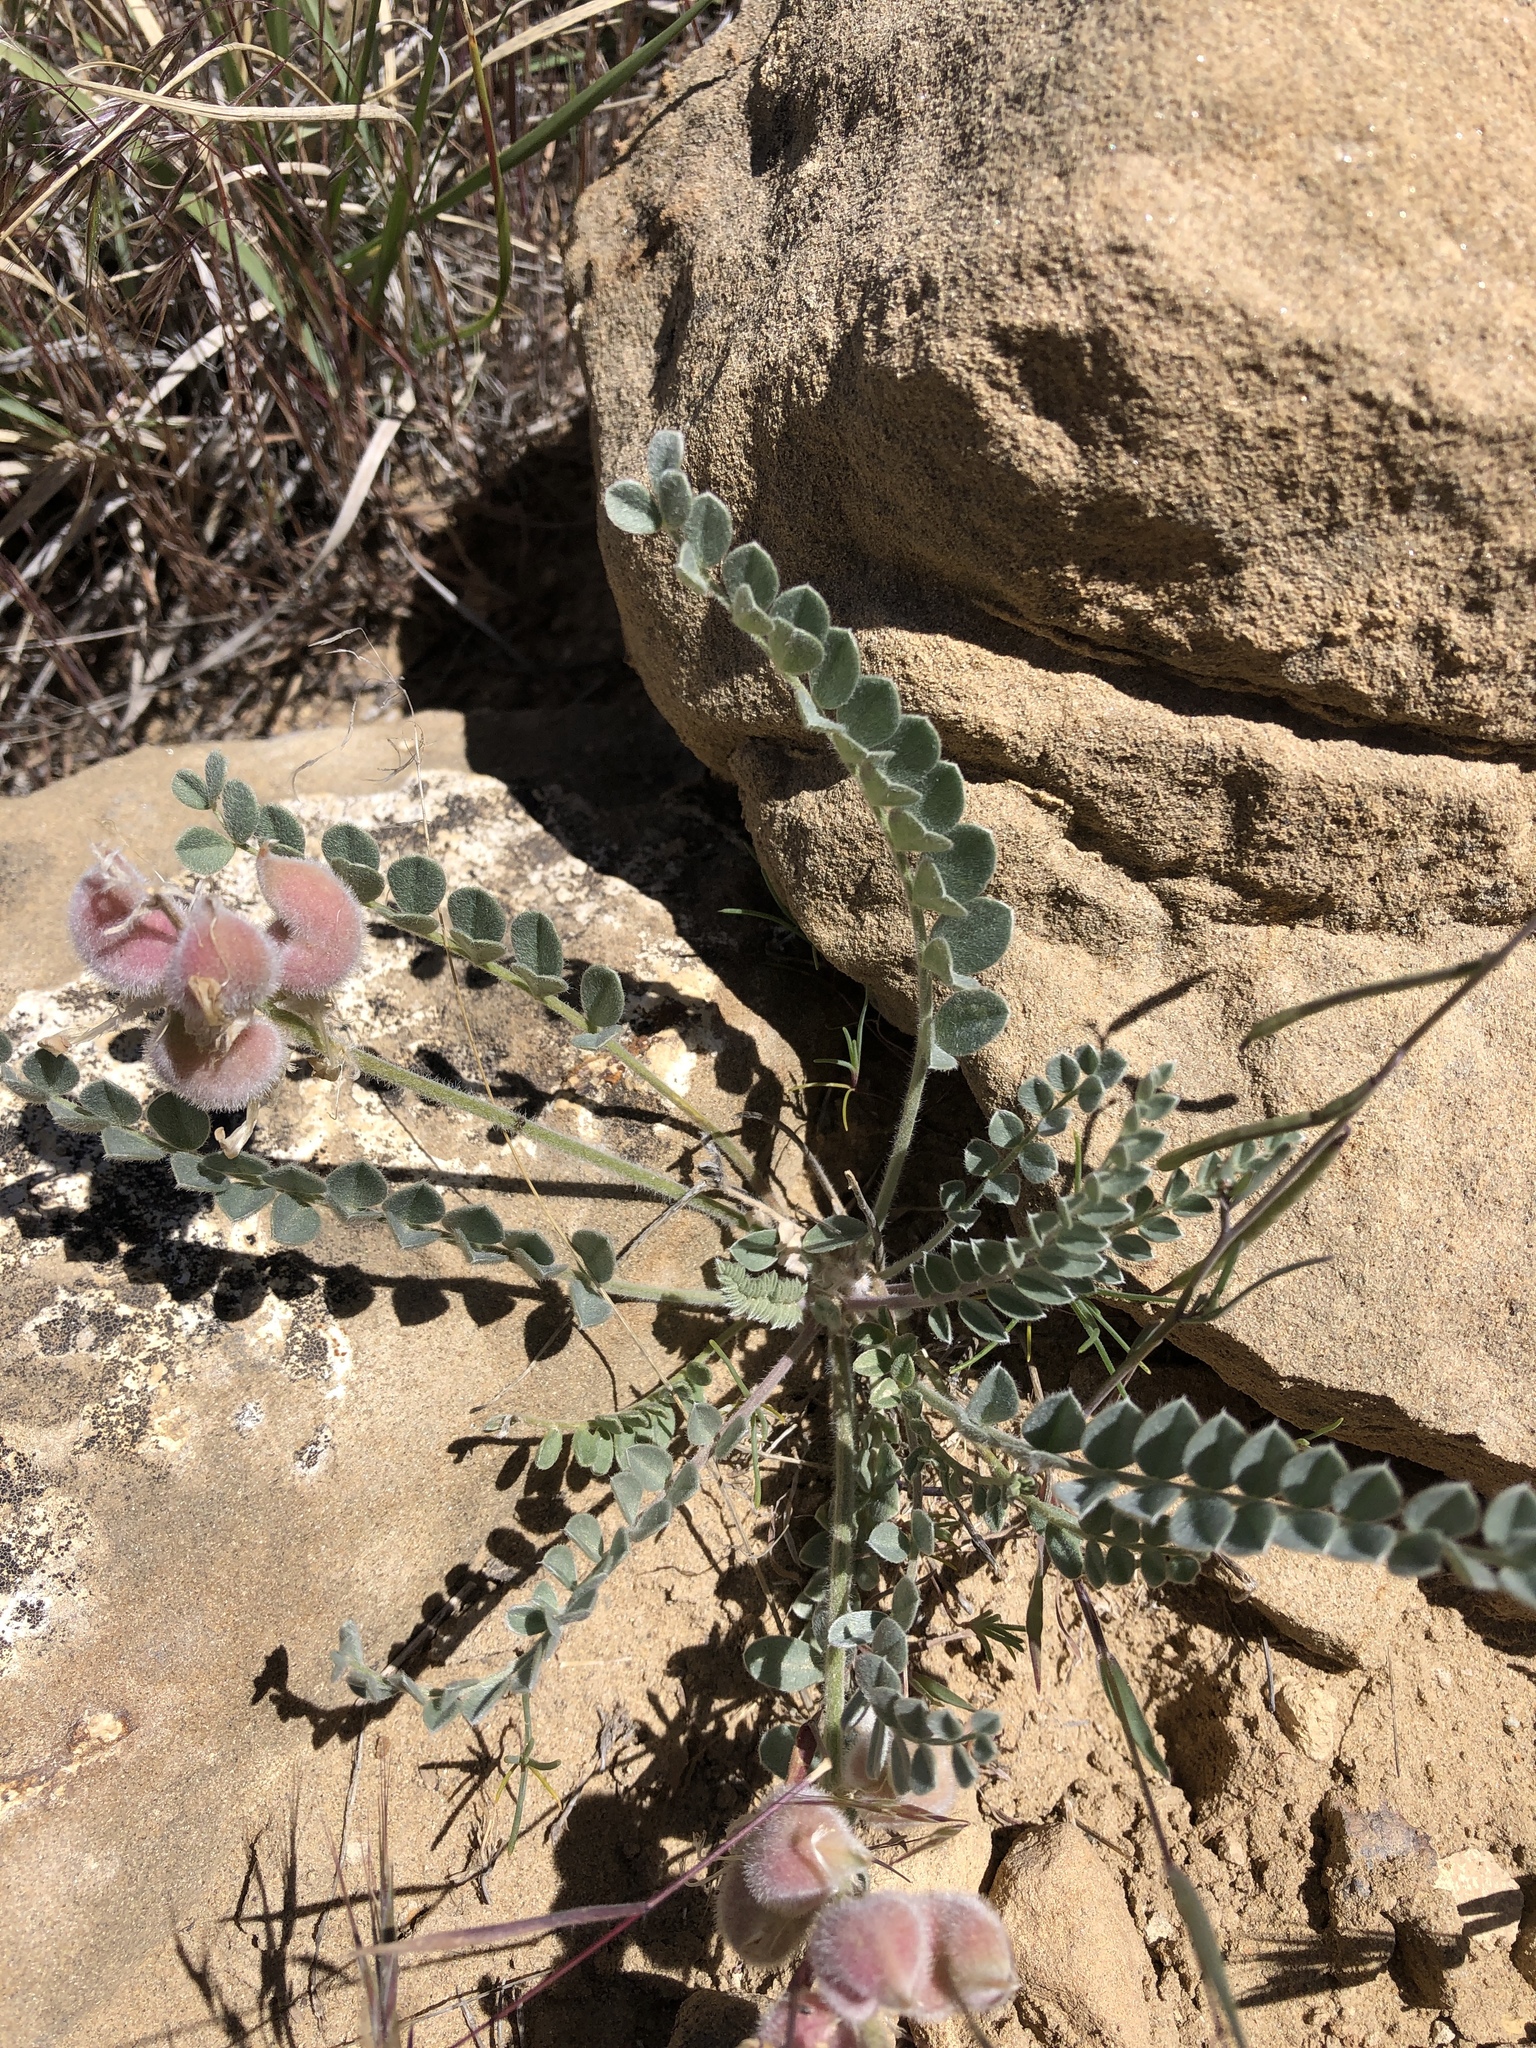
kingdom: Plantae
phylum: Tracheophyta
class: Magnoliopsida
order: Fabales
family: Fabaceae
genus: Astragalus
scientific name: Astragalus mollissimus
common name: Woolly locoweed
